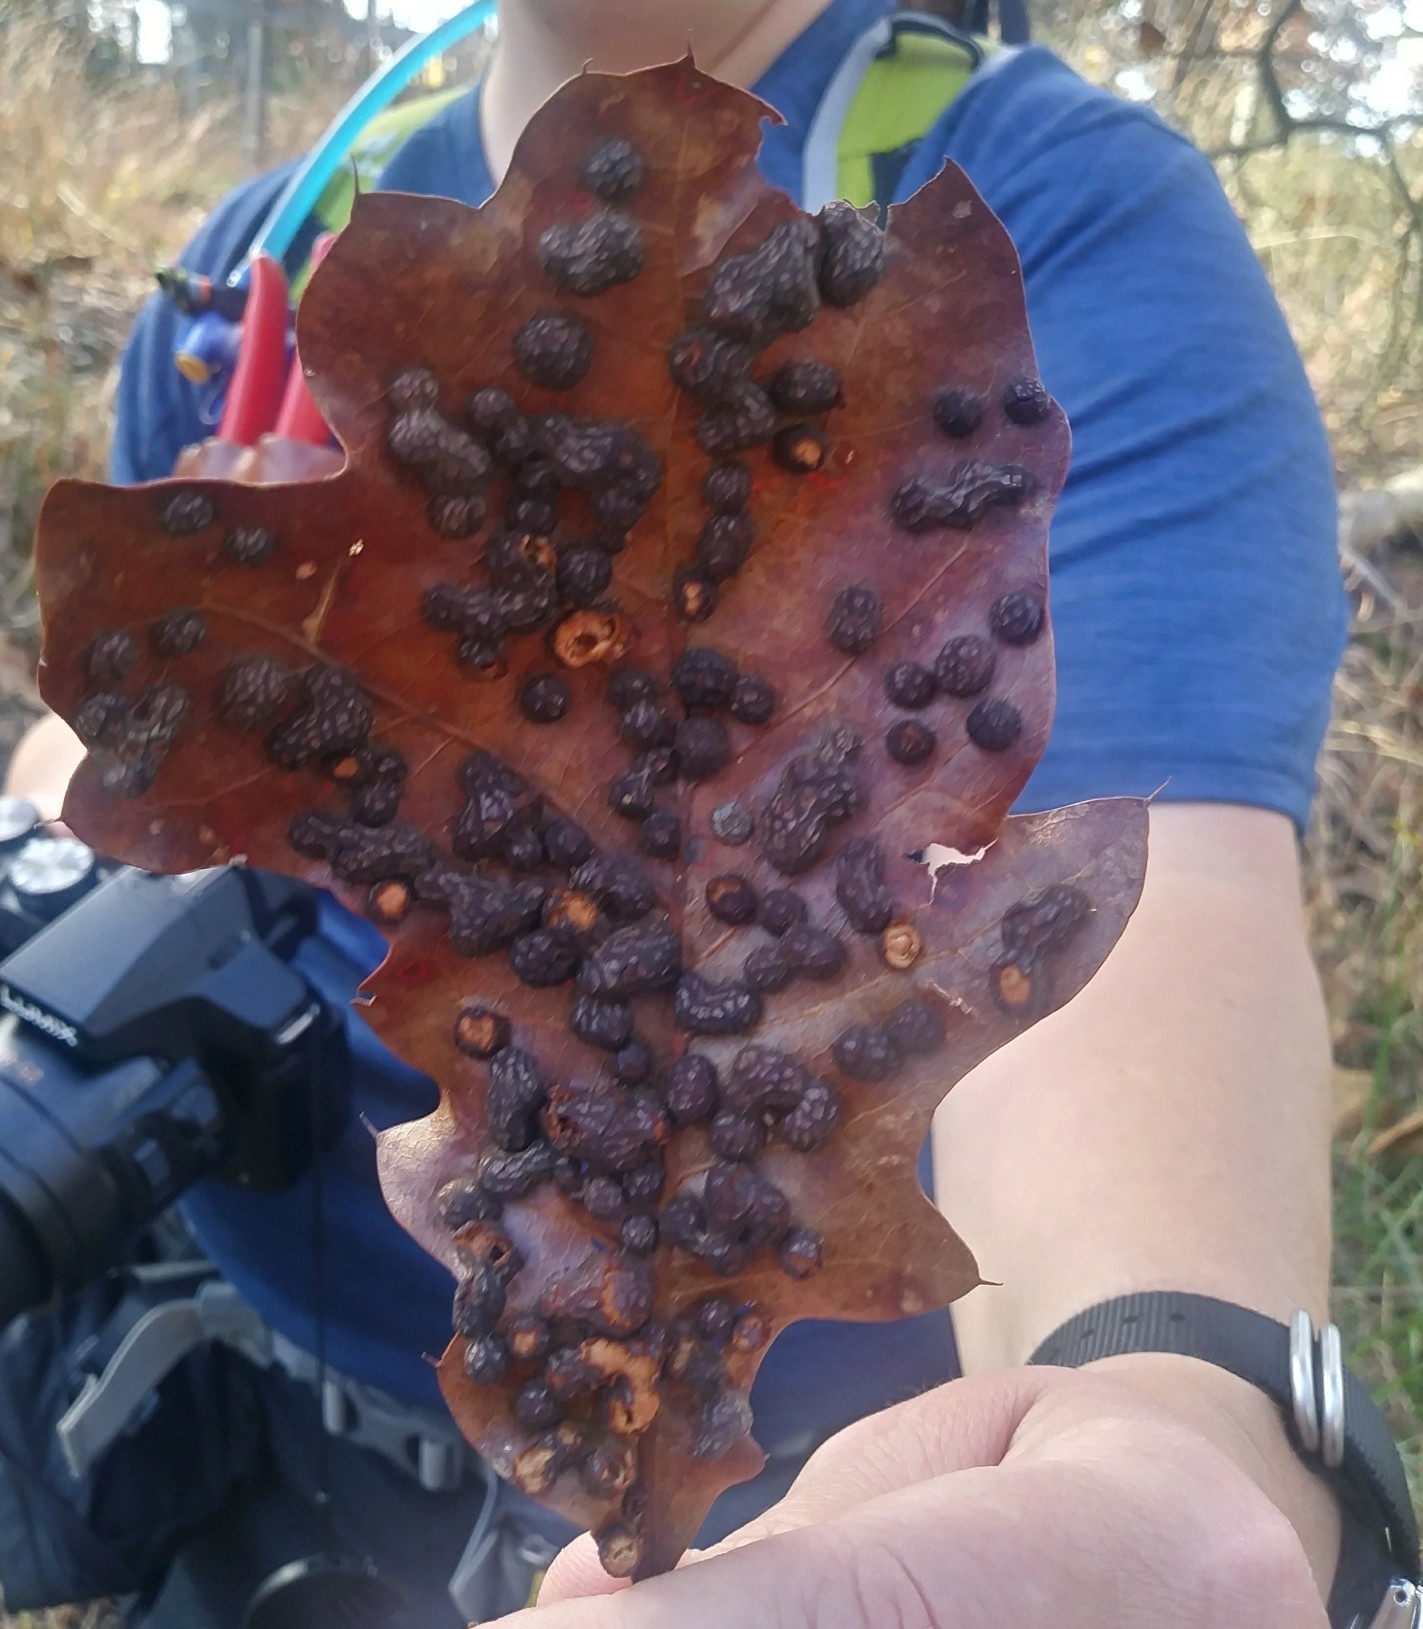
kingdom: Animalia
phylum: Arthropoda
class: Insecta
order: Diptera
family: Cecidomyiidae
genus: Polystepha
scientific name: Polystepha pilulae
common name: Oak leaf gall midge
